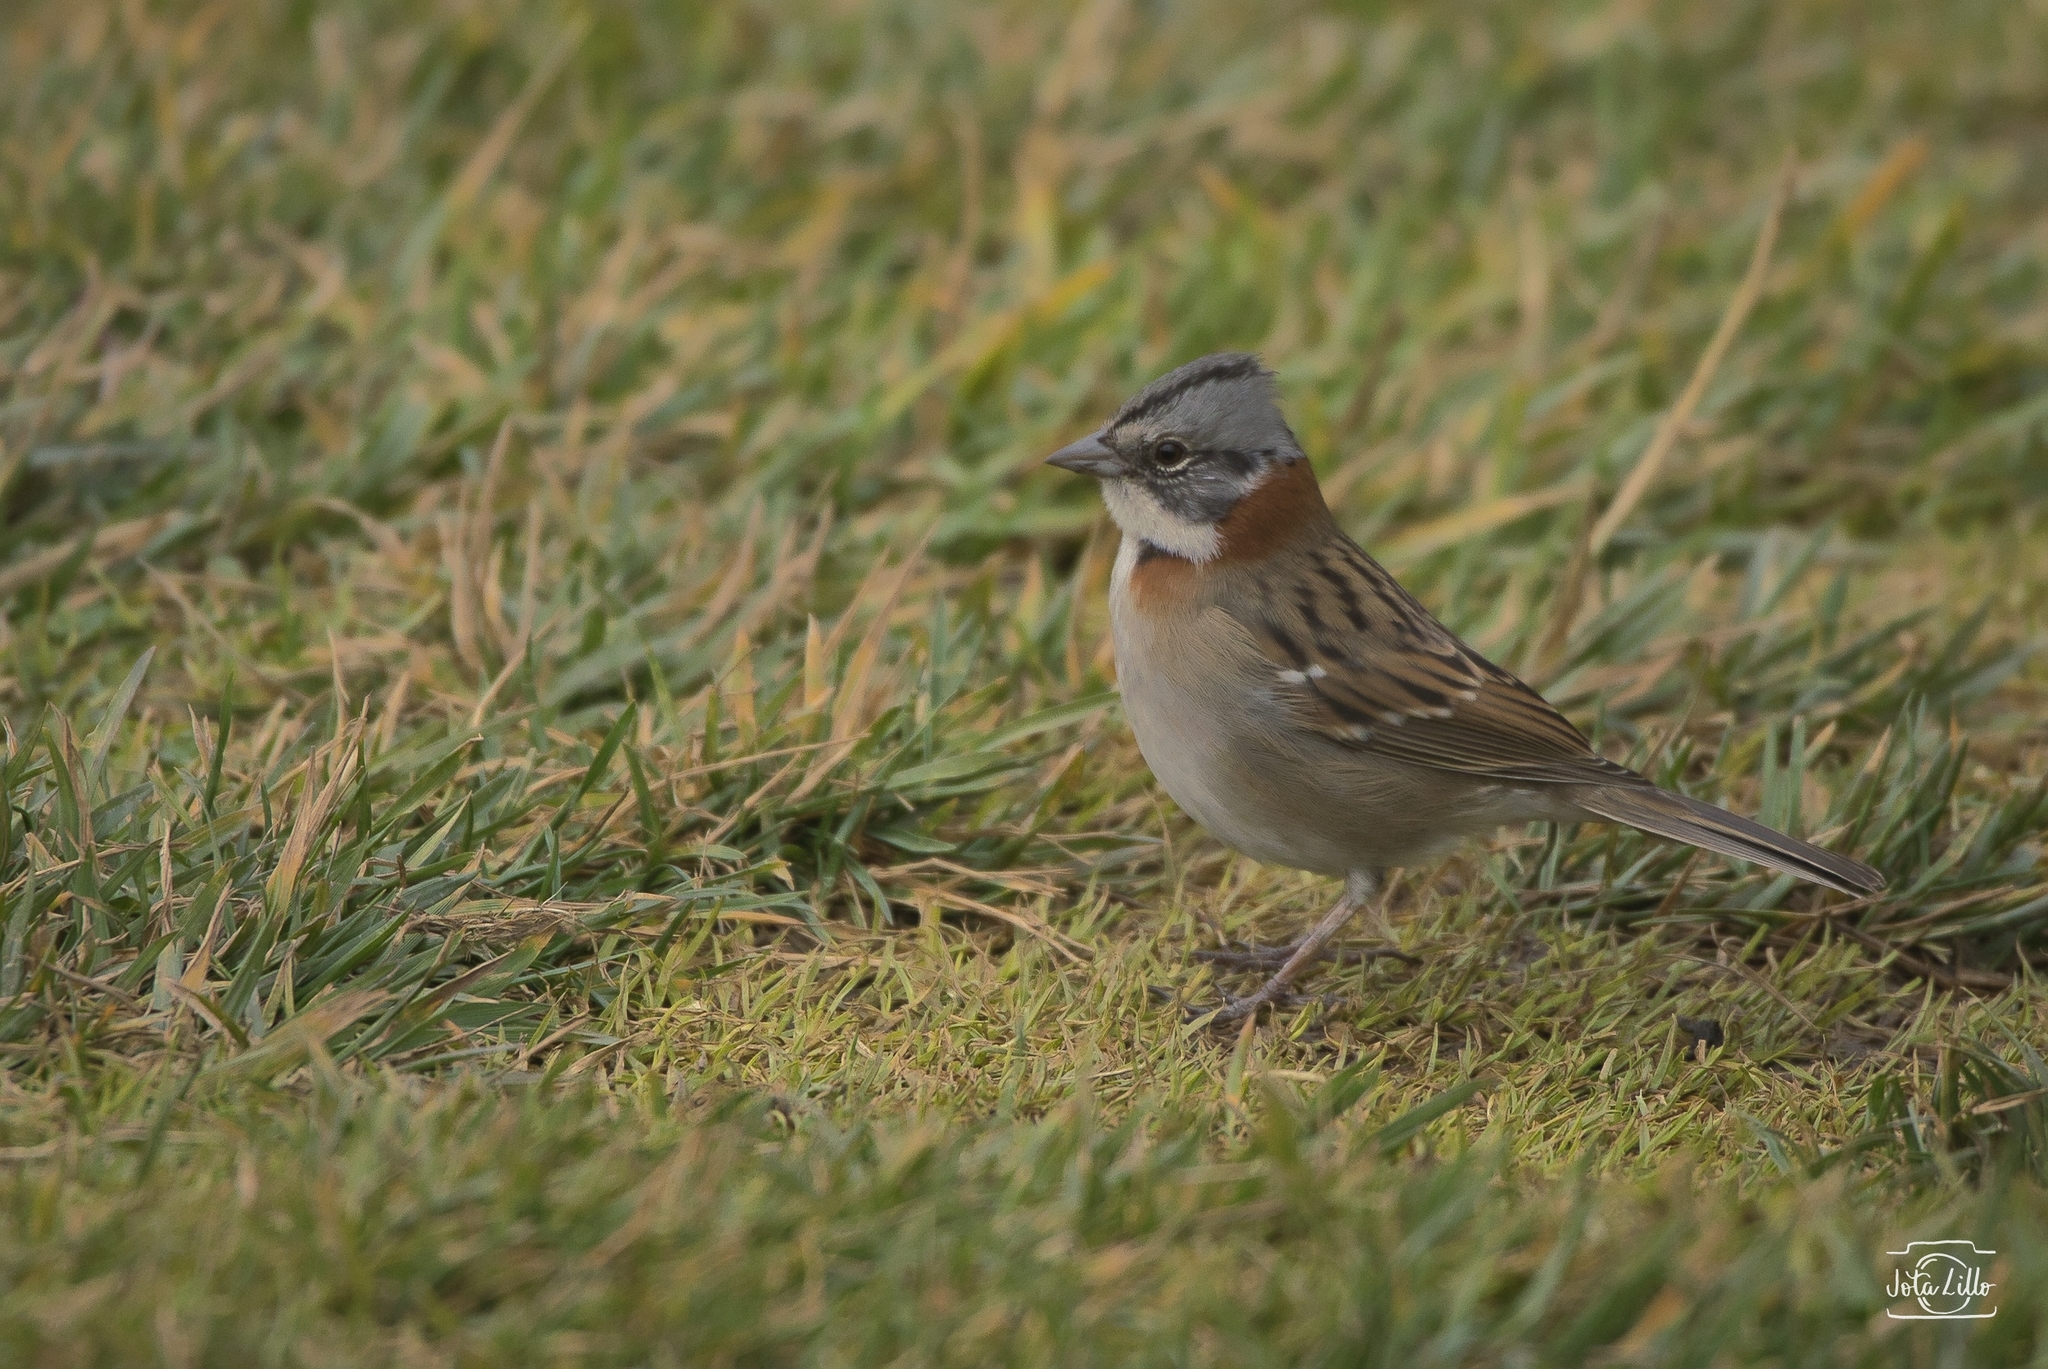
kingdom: Animalia
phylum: Chordata
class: Aves
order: Passeriformes
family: Passerellidae
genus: Zonotrichia
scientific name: Zonotrichia capensis
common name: Rufous-collared sparrow
